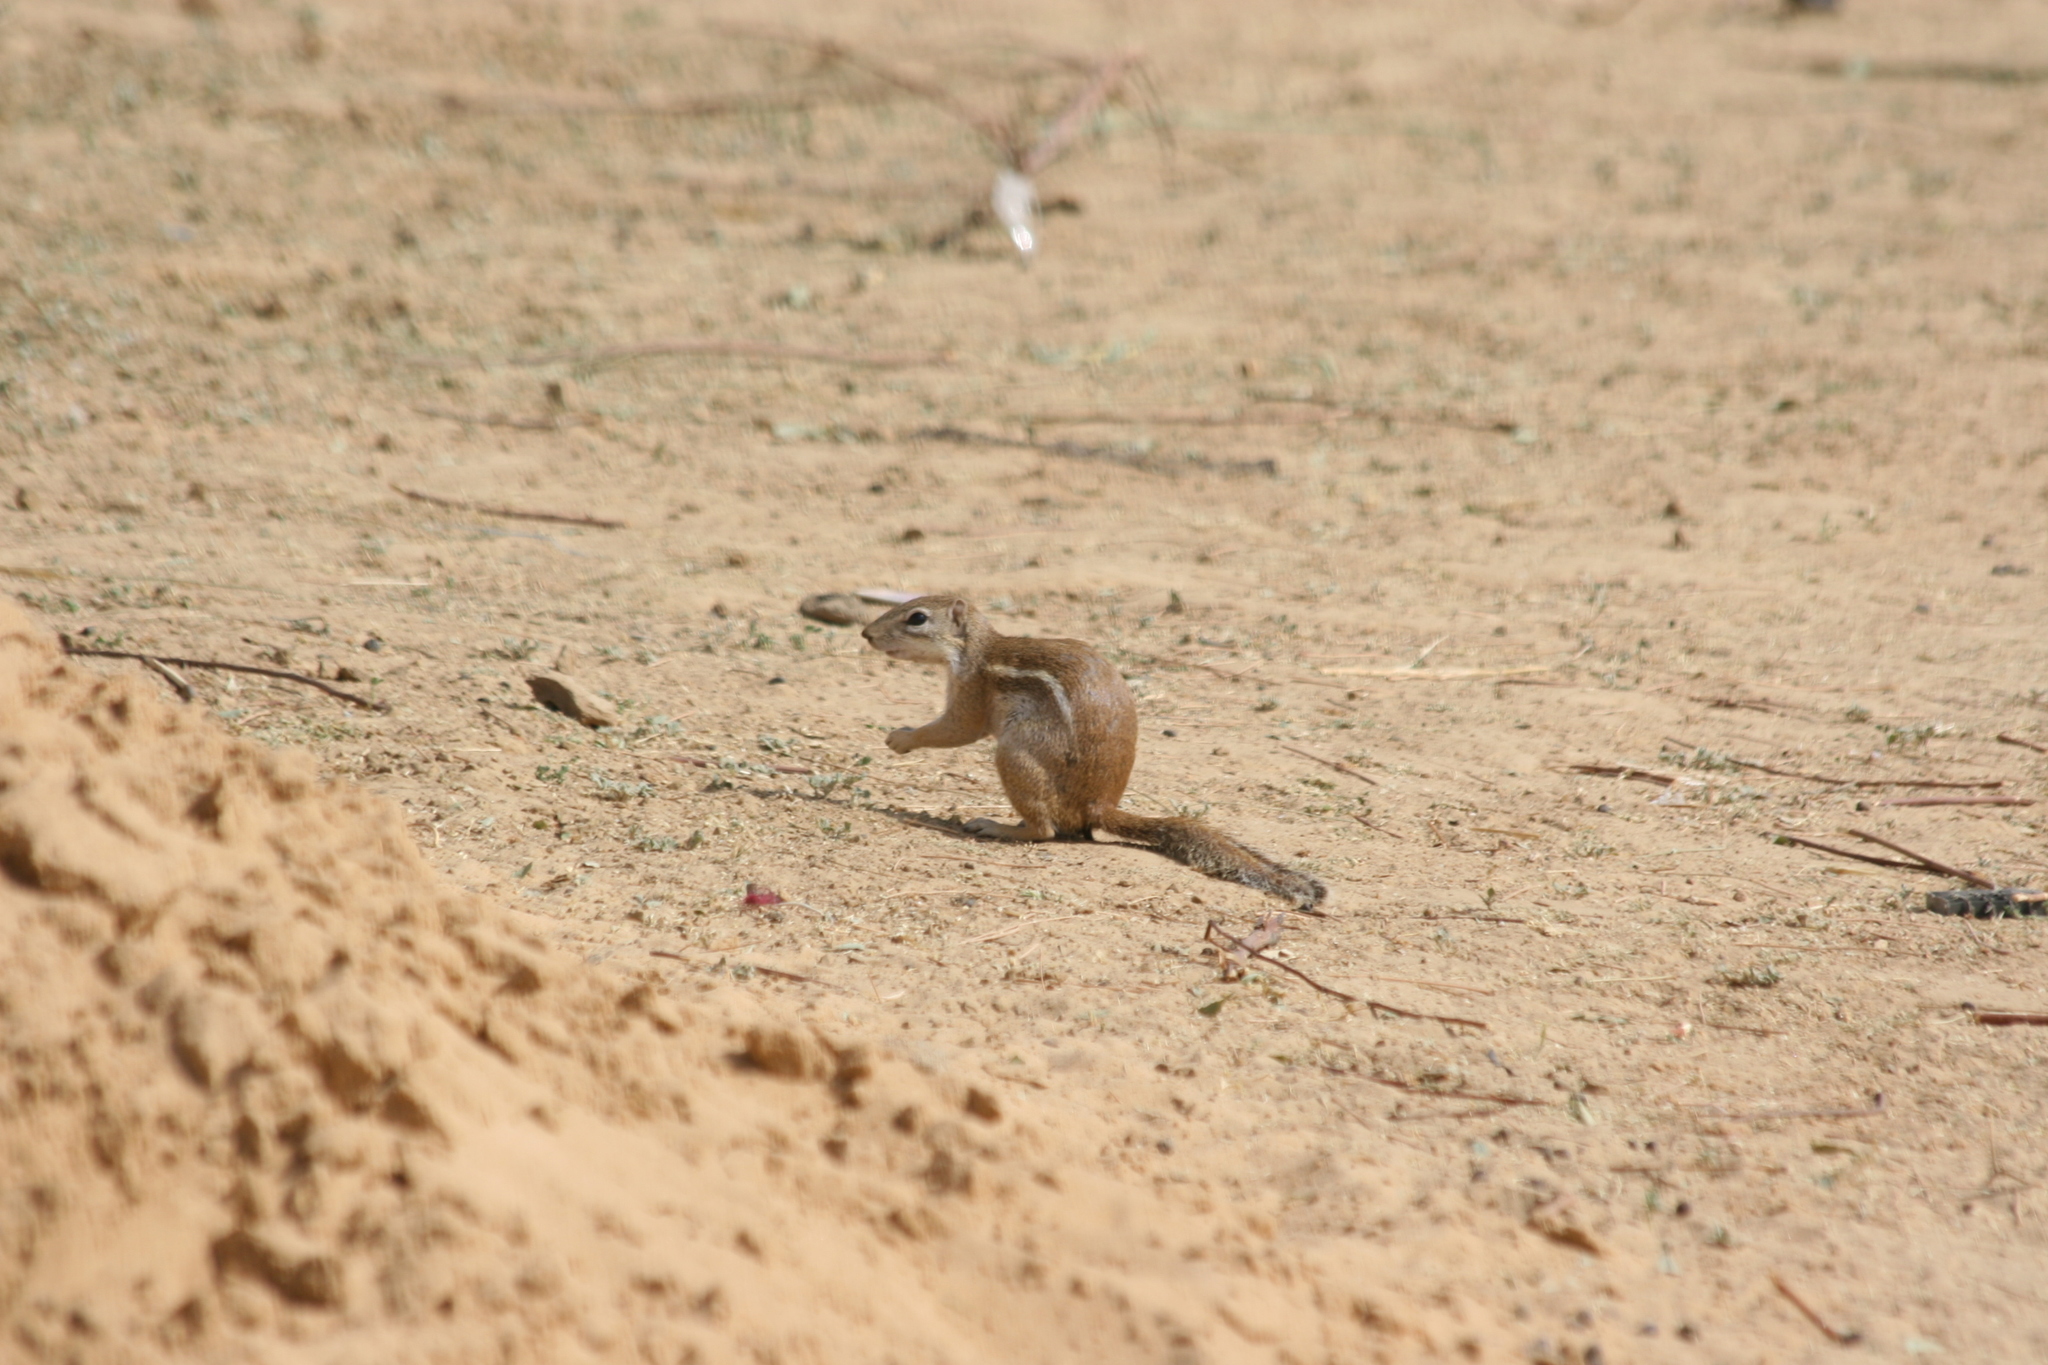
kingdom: Animalia
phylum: Chordata
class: Mammalia
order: Rodentia
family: Sciuridae
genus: Xerus
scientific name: Xerus erythropus
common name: Striped ground squirrel
